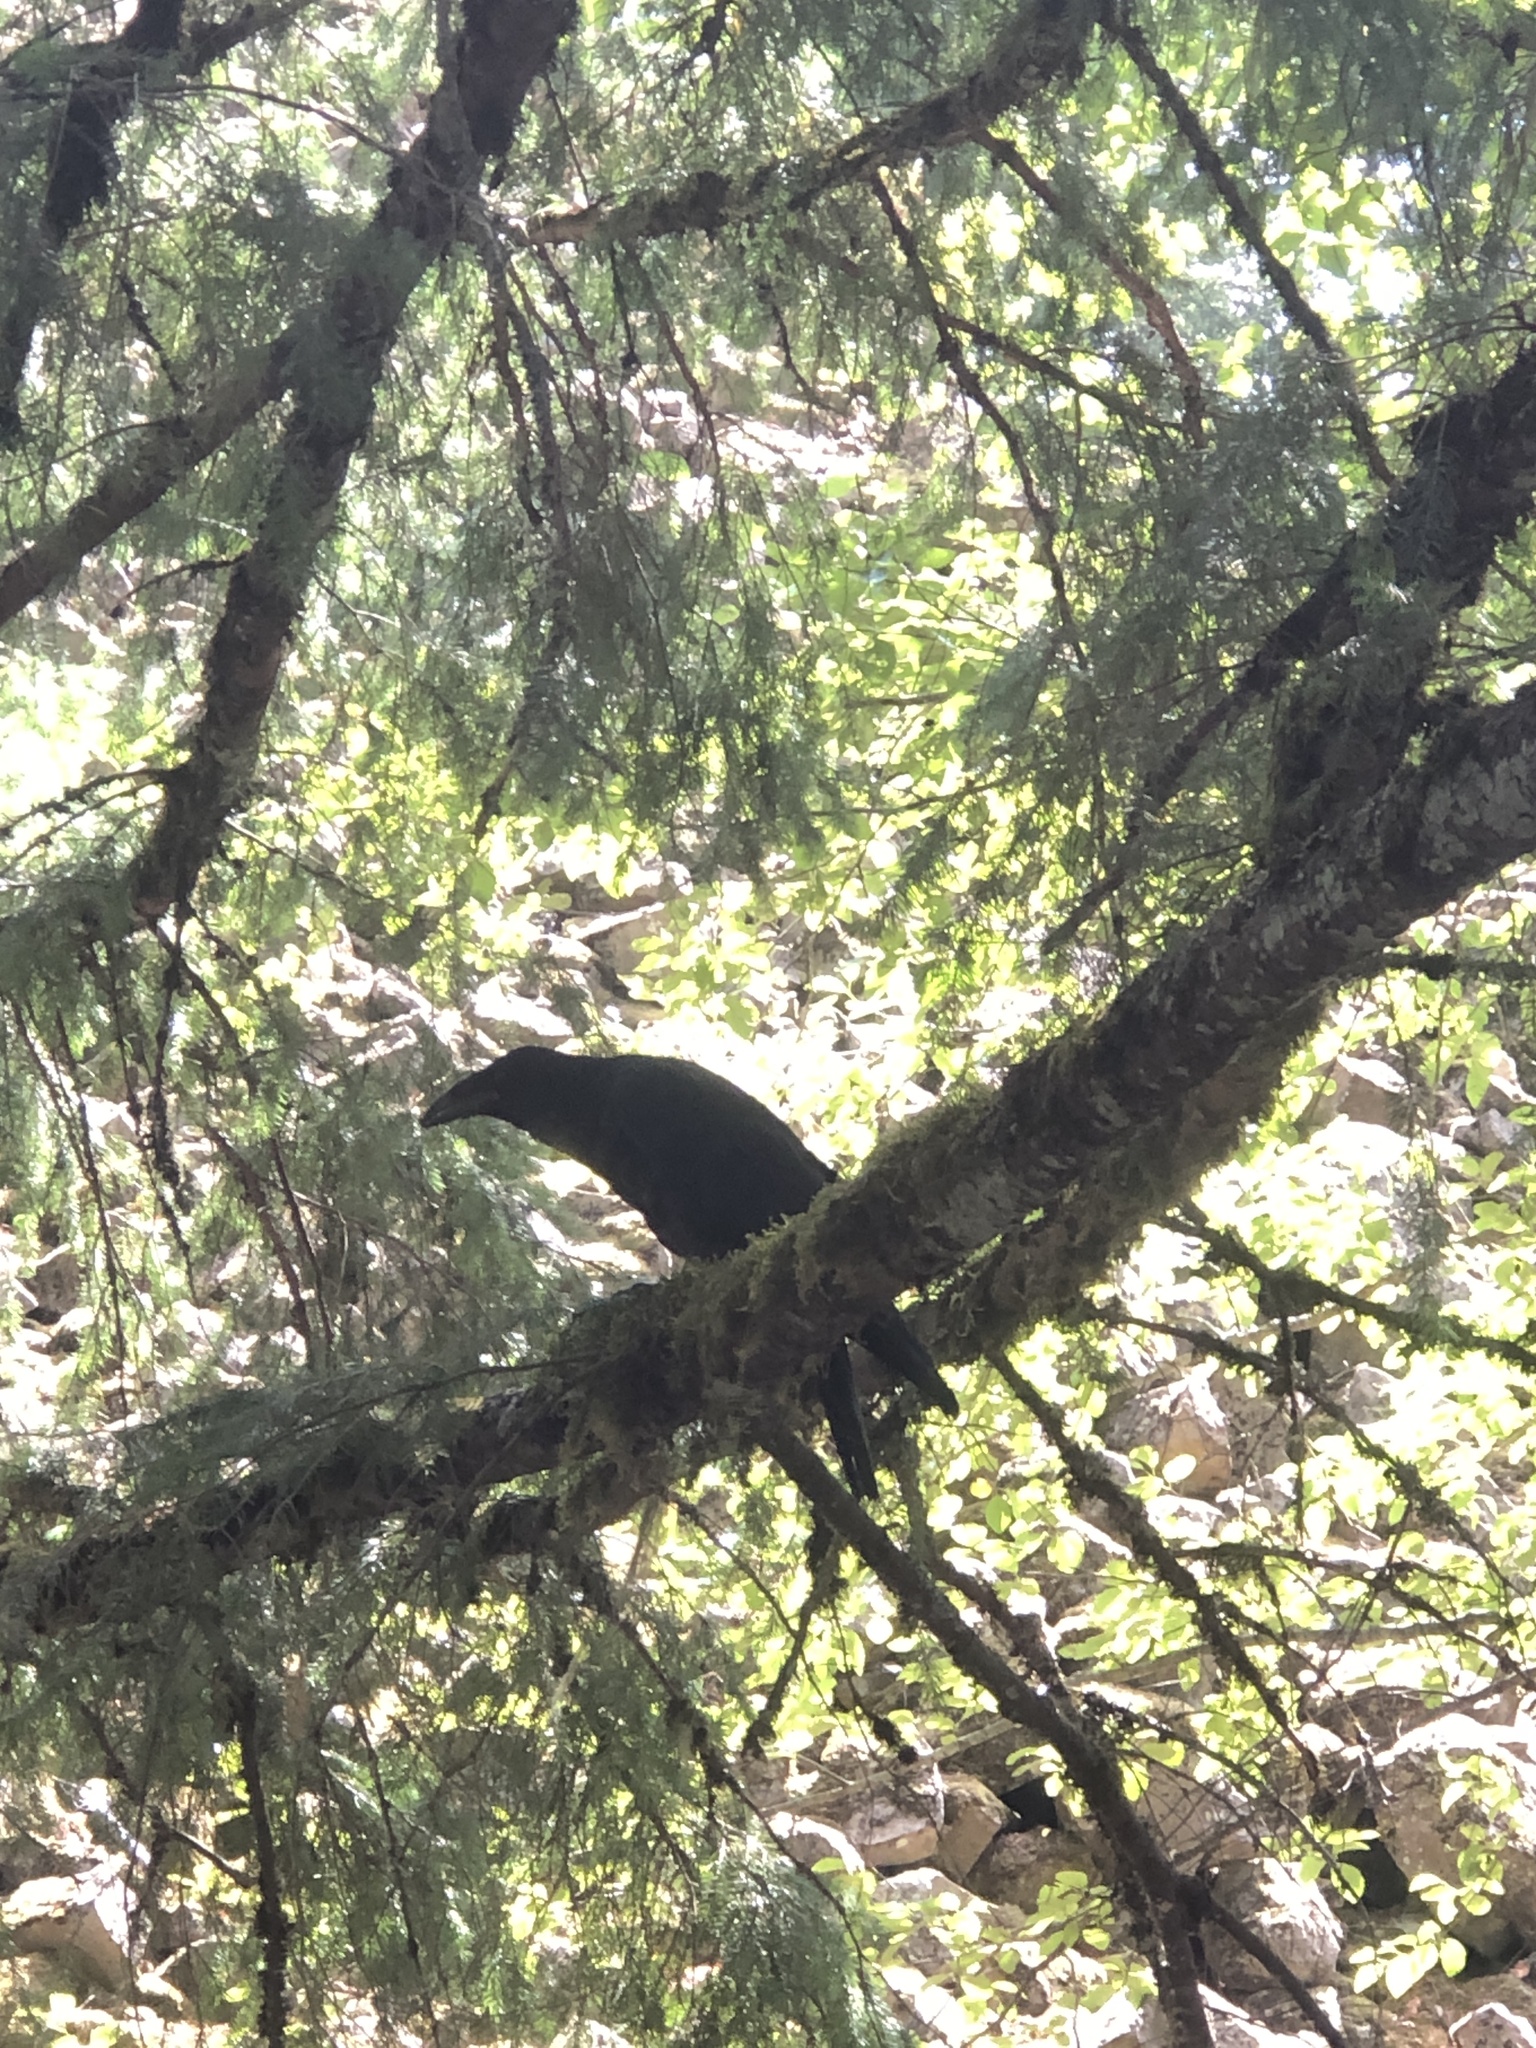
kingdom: Animalia
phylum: Chordata
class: Aves
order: Passeriformes
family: Corvidae
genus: Corvus
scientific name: Corvus corax
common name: Common raven
